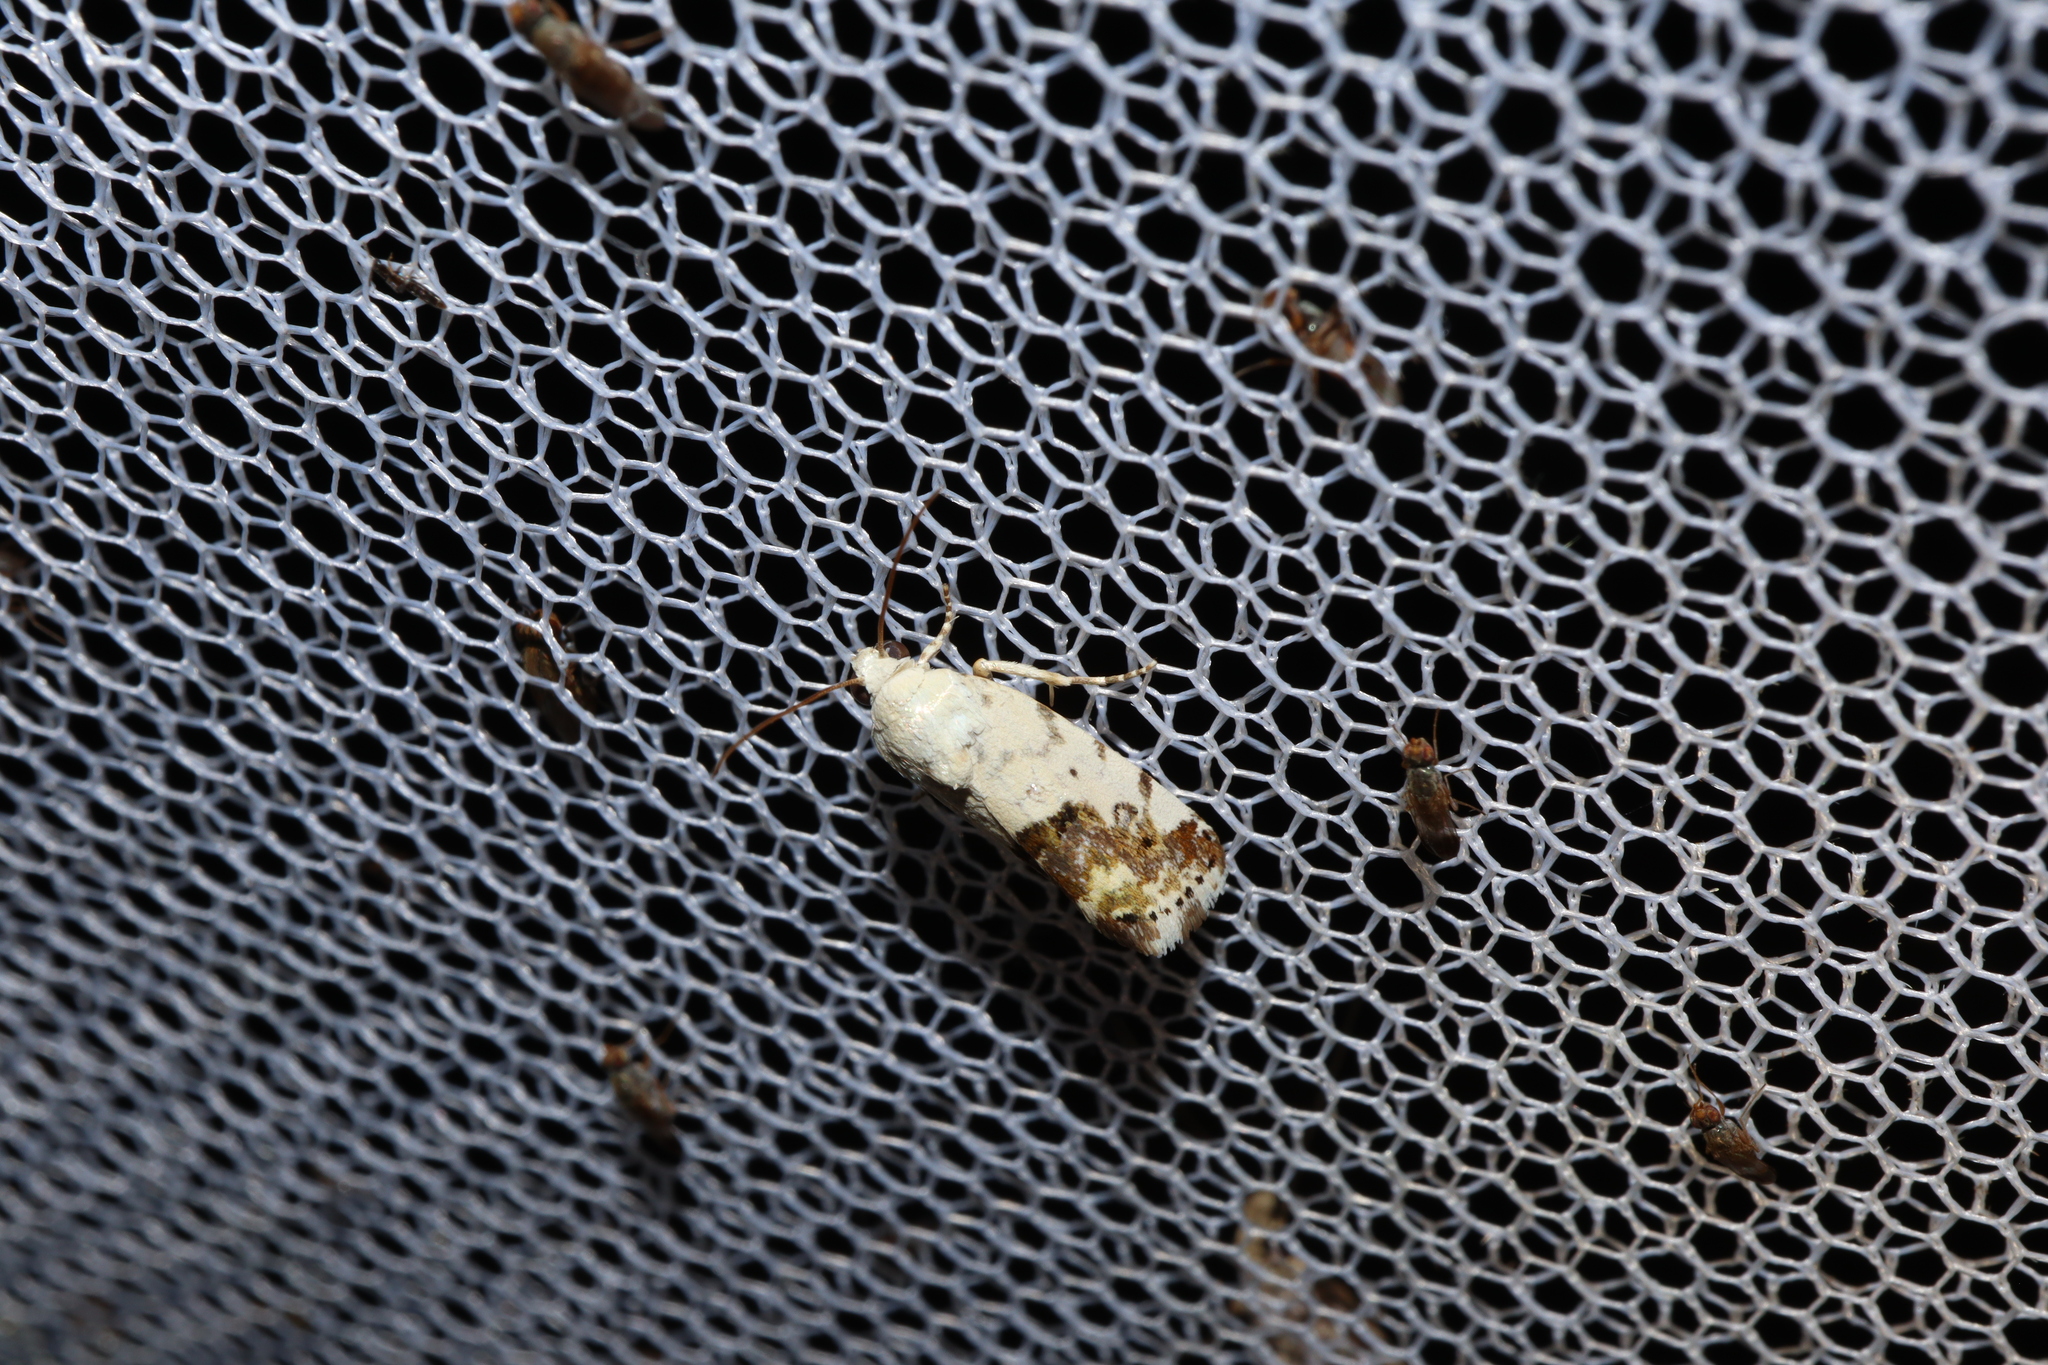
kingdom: Animalia
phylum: Arthropoda
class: Insecta
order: Lepidoptera
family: Noctuidae
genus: Acontia
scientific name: Acontia clerana
